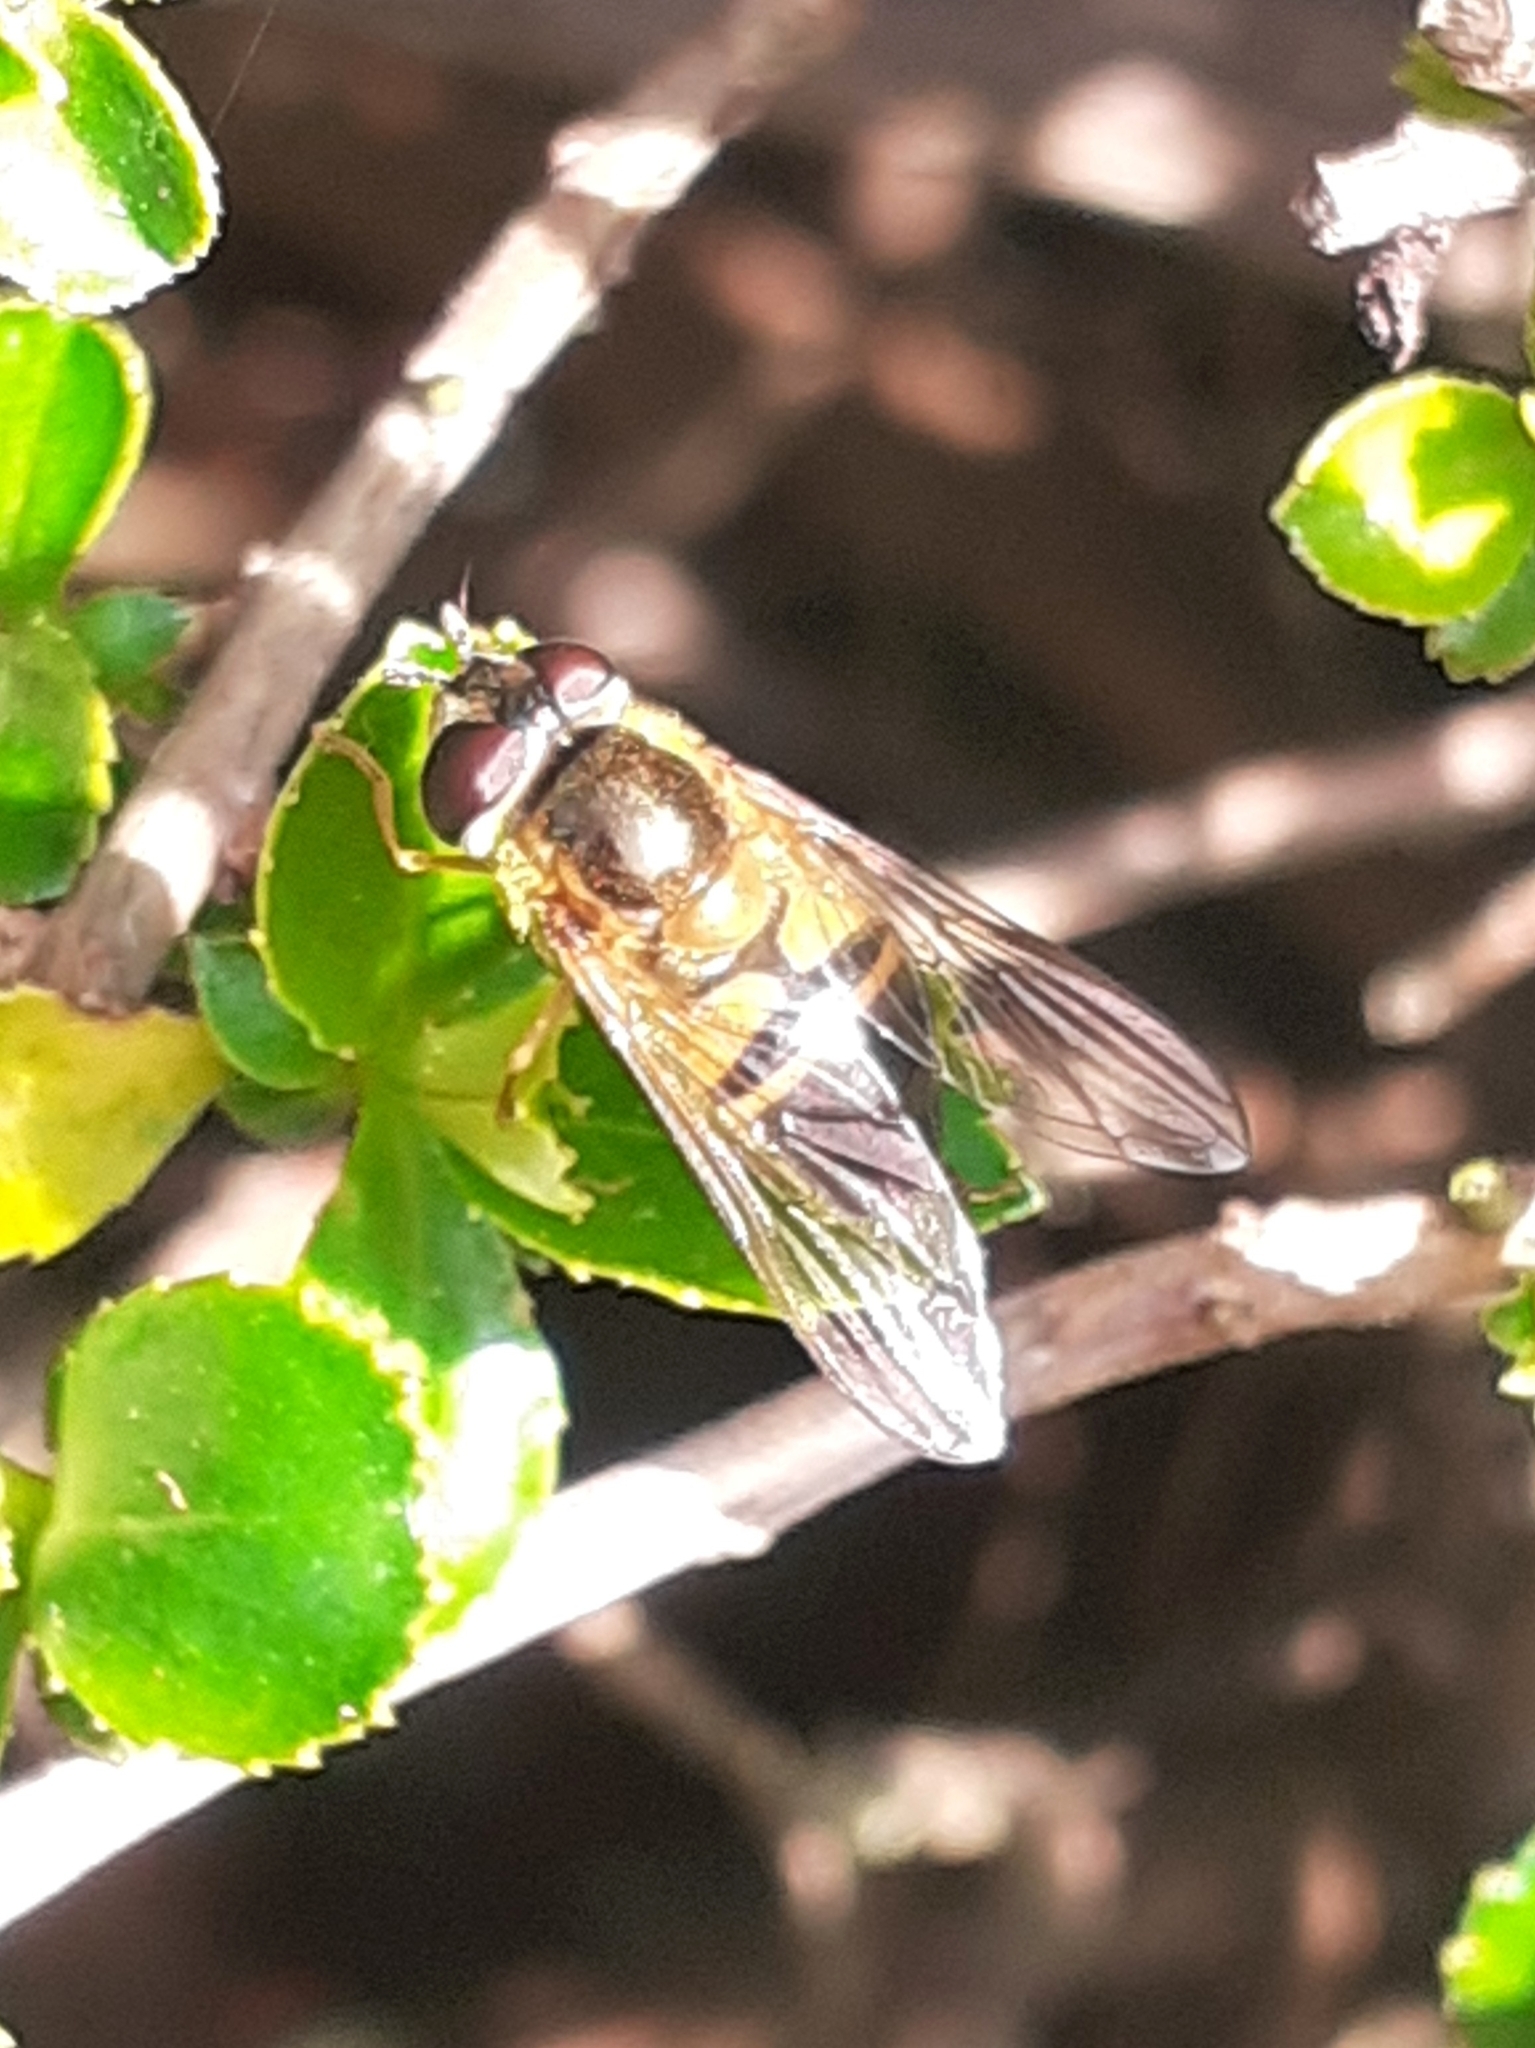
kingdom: Animalia
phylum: Arthropoda
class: Insecta
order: Diptera
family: Syrphidae
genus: Epistrophe
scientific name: Epistrophe eligans
